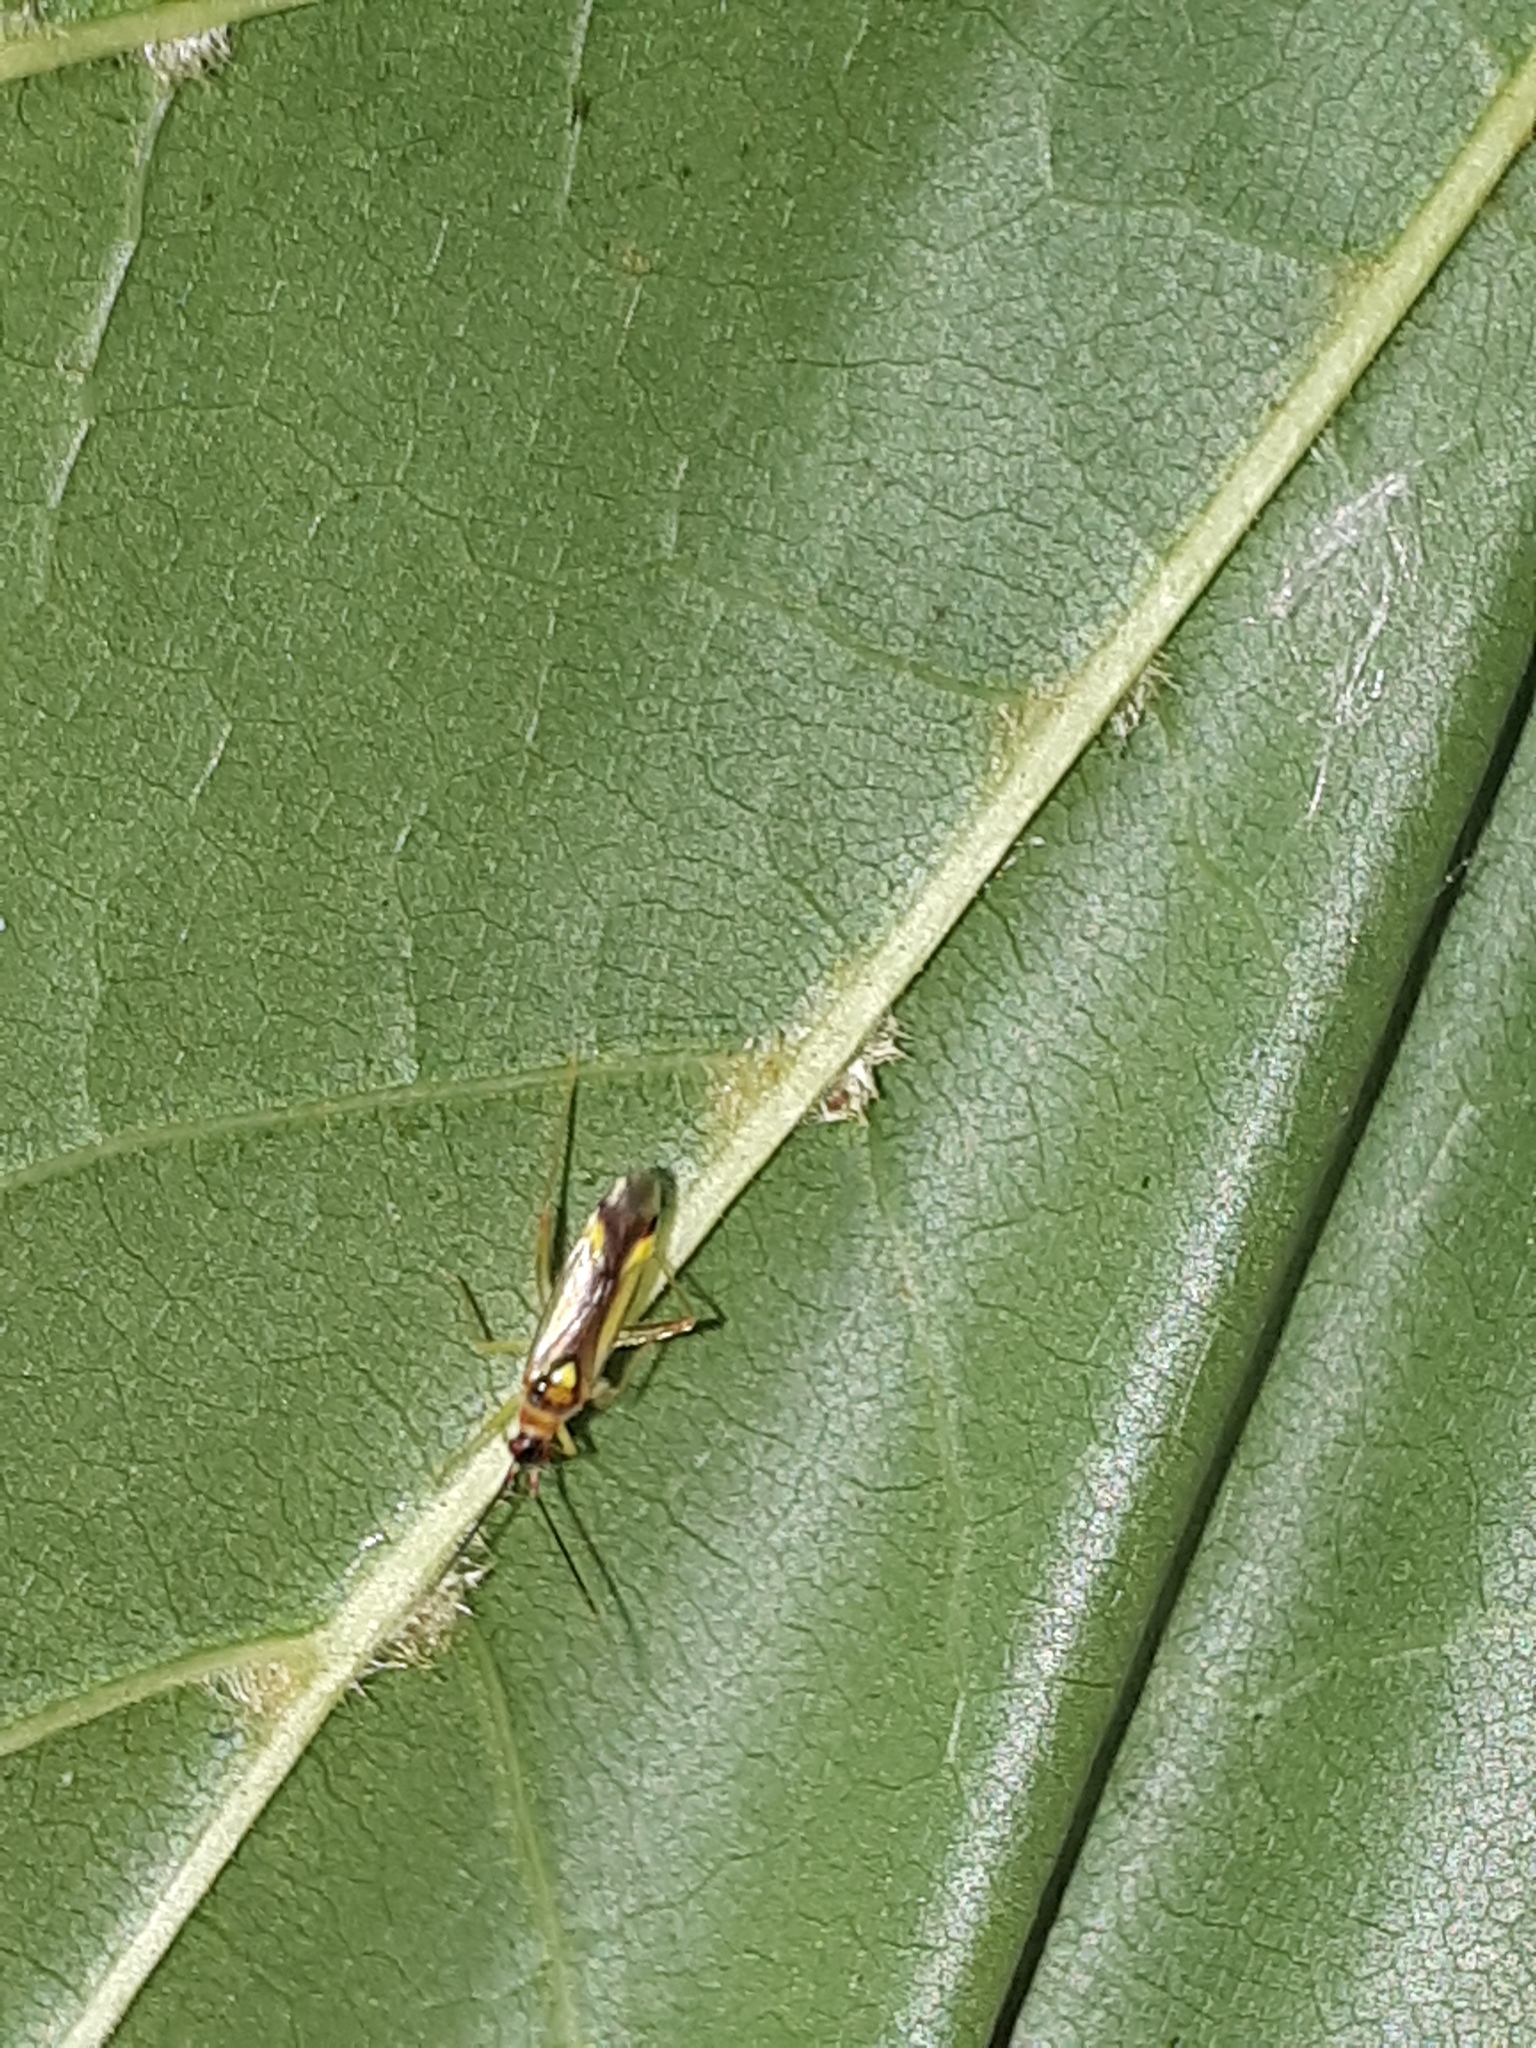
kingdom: Animalia
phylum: Arthropoda
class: Insecta
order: Hemiptera
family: Miridae
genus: Campyloneura
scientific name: Campyloneura virgula
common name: Predatory bug
